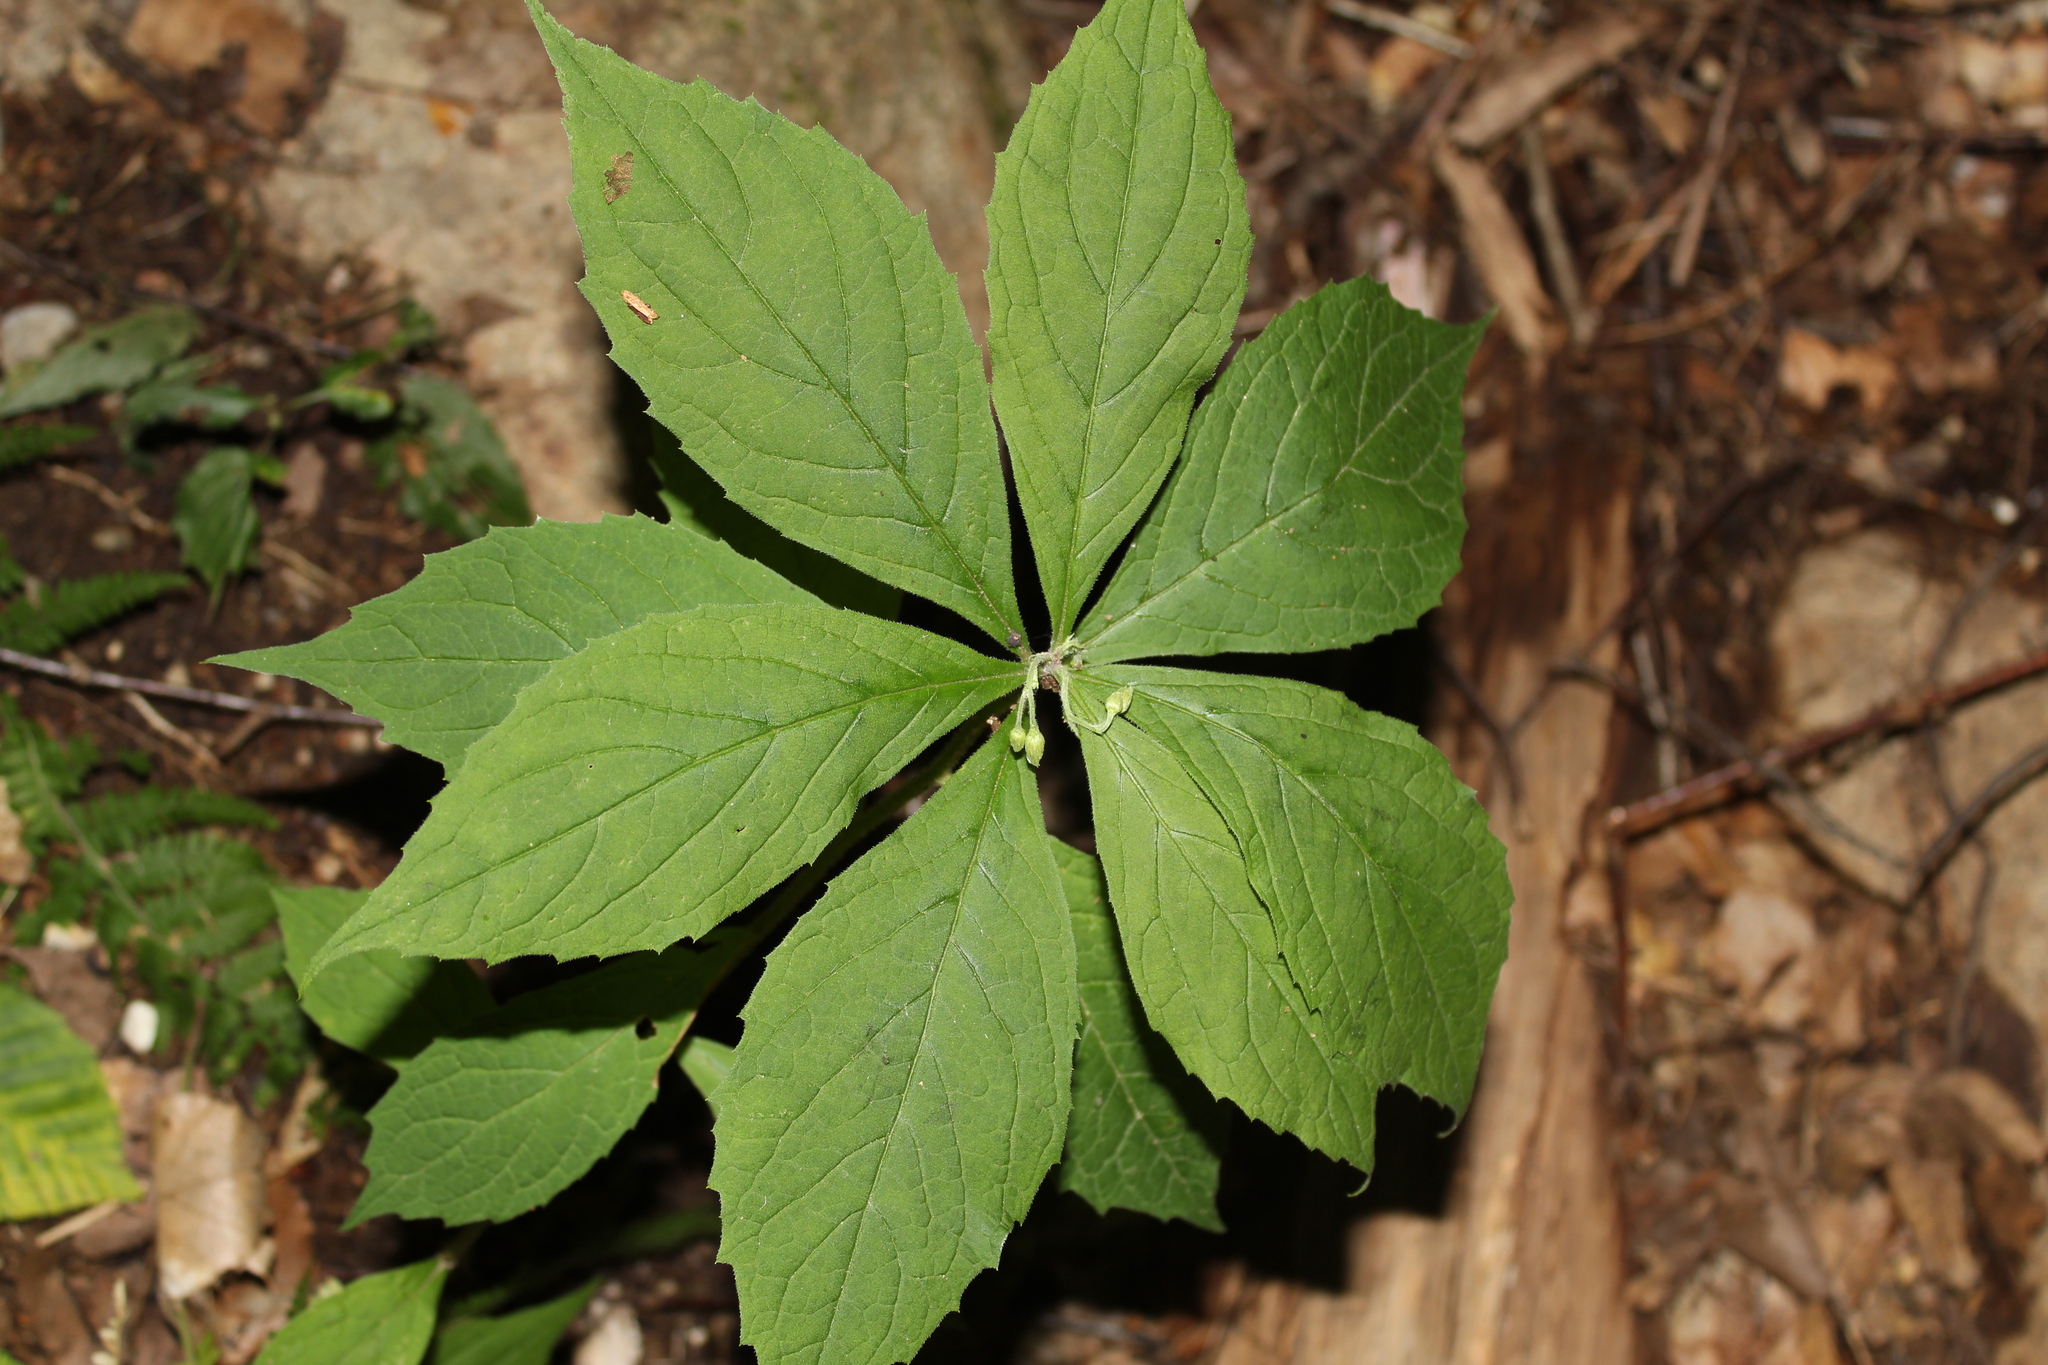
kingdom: Plantae
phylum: Tracheophyta
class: Magnoliopsida
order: Asterales
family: Asteraceae
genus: Oclemena
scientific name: Oclemena acuminata
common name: Mountain aster
